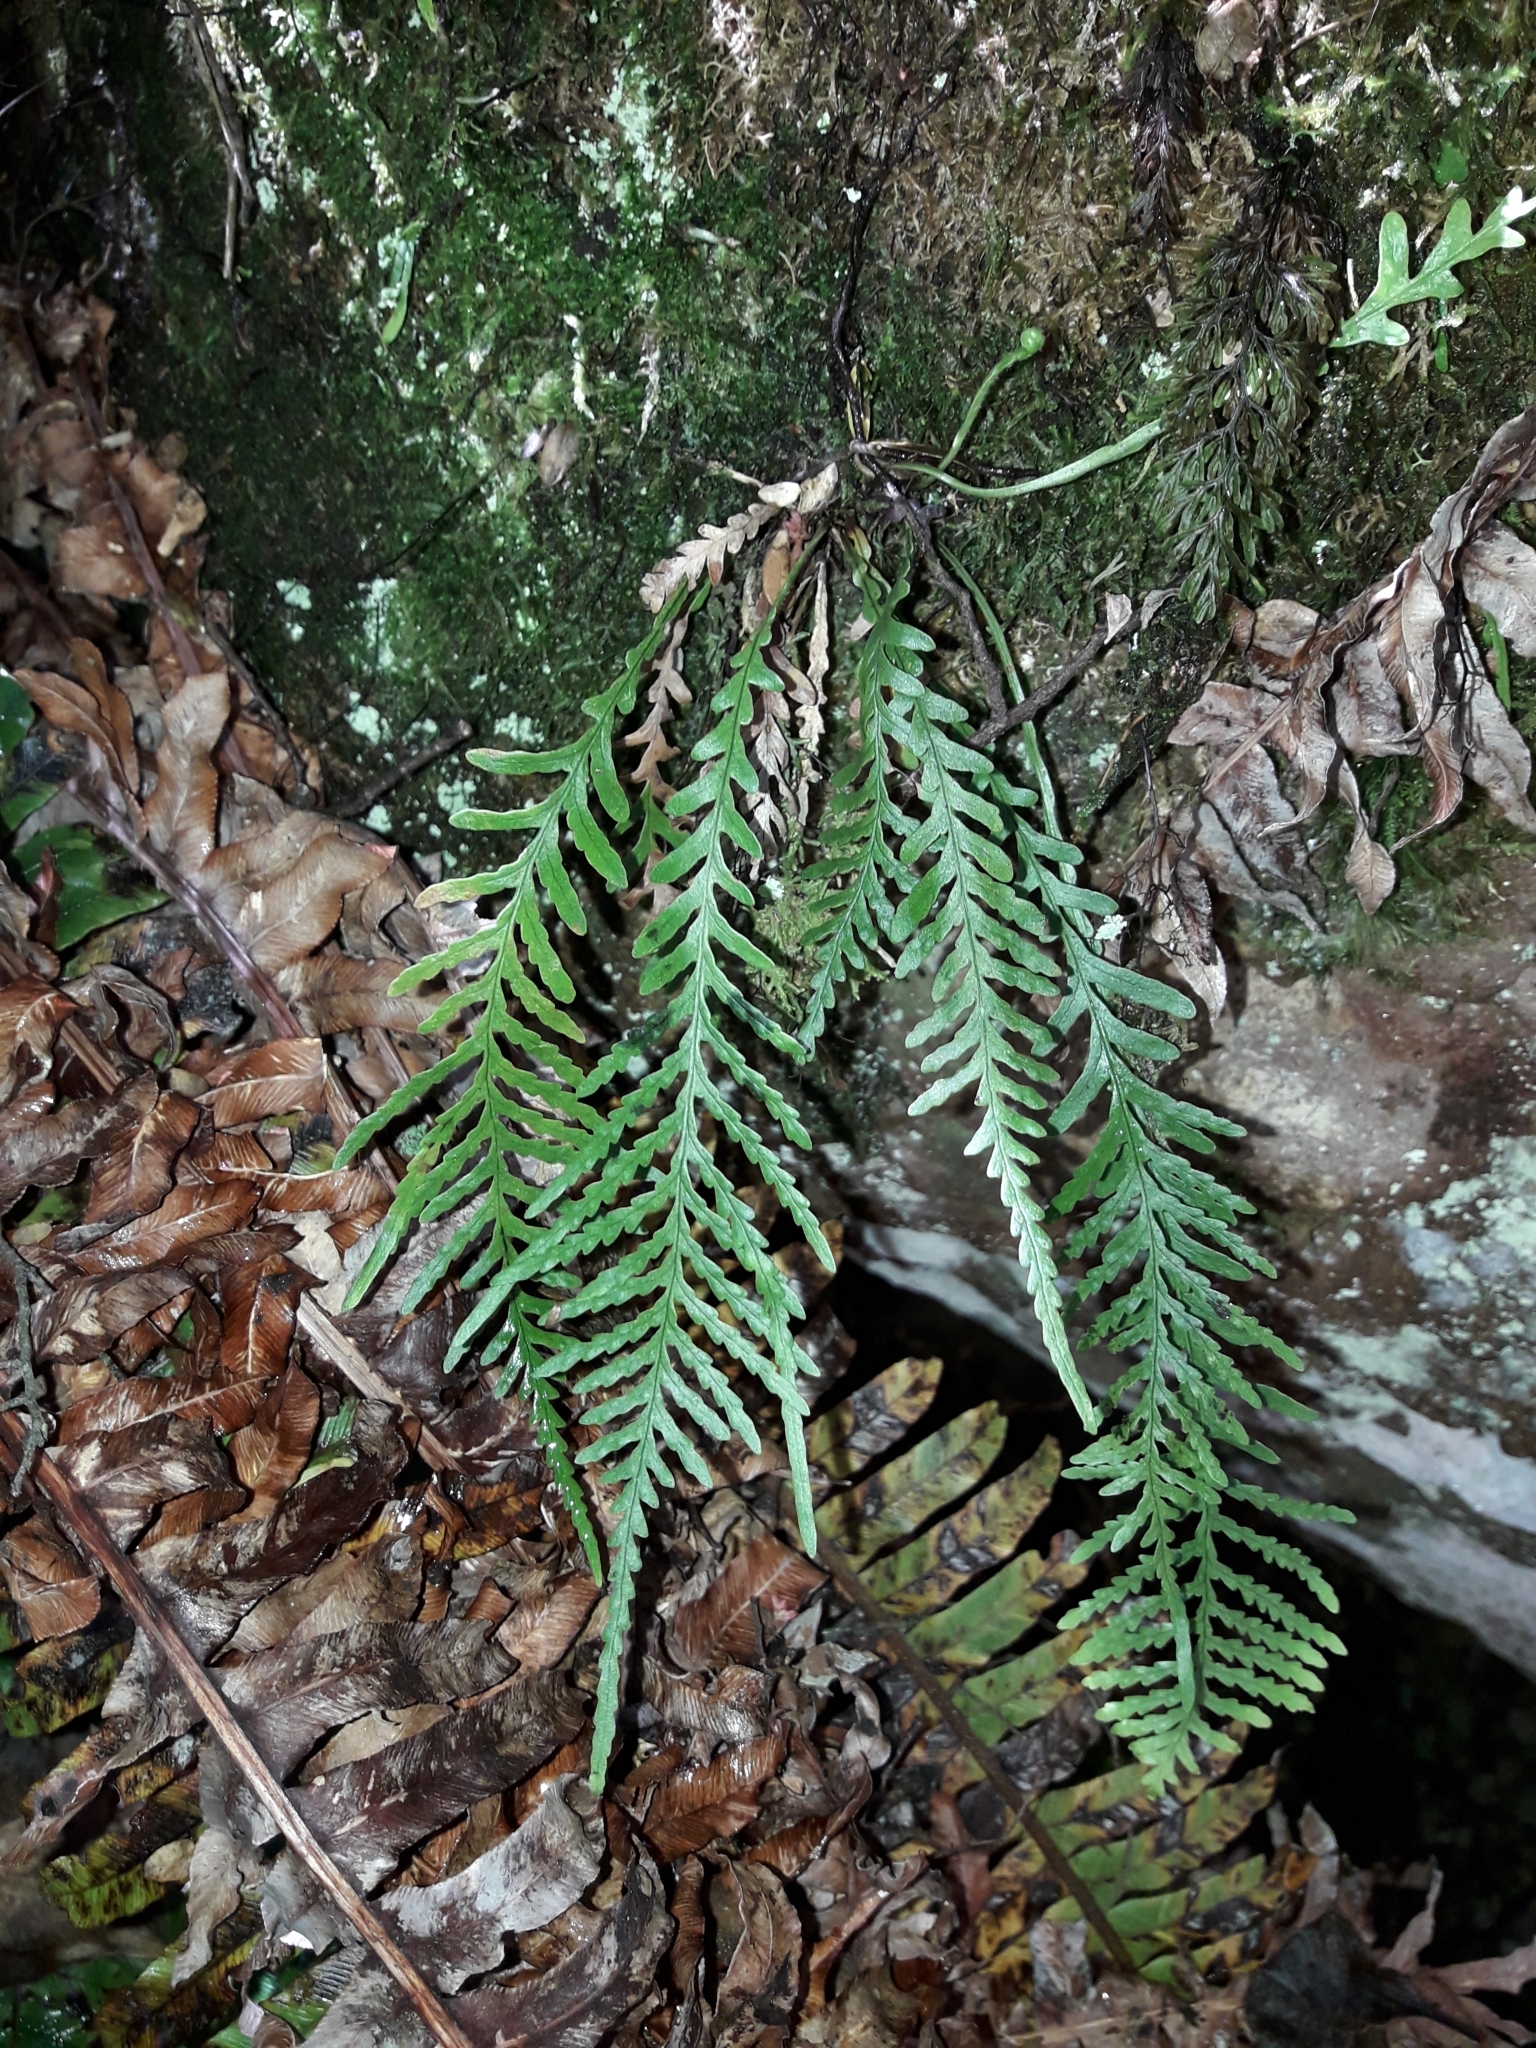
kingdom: Plantae
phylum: Tracheophyta
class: Polypodiopsida
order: Polypodiales
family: Polypodiaceae
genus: Notogrammitis
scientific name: Notogrammitis heterophylla
